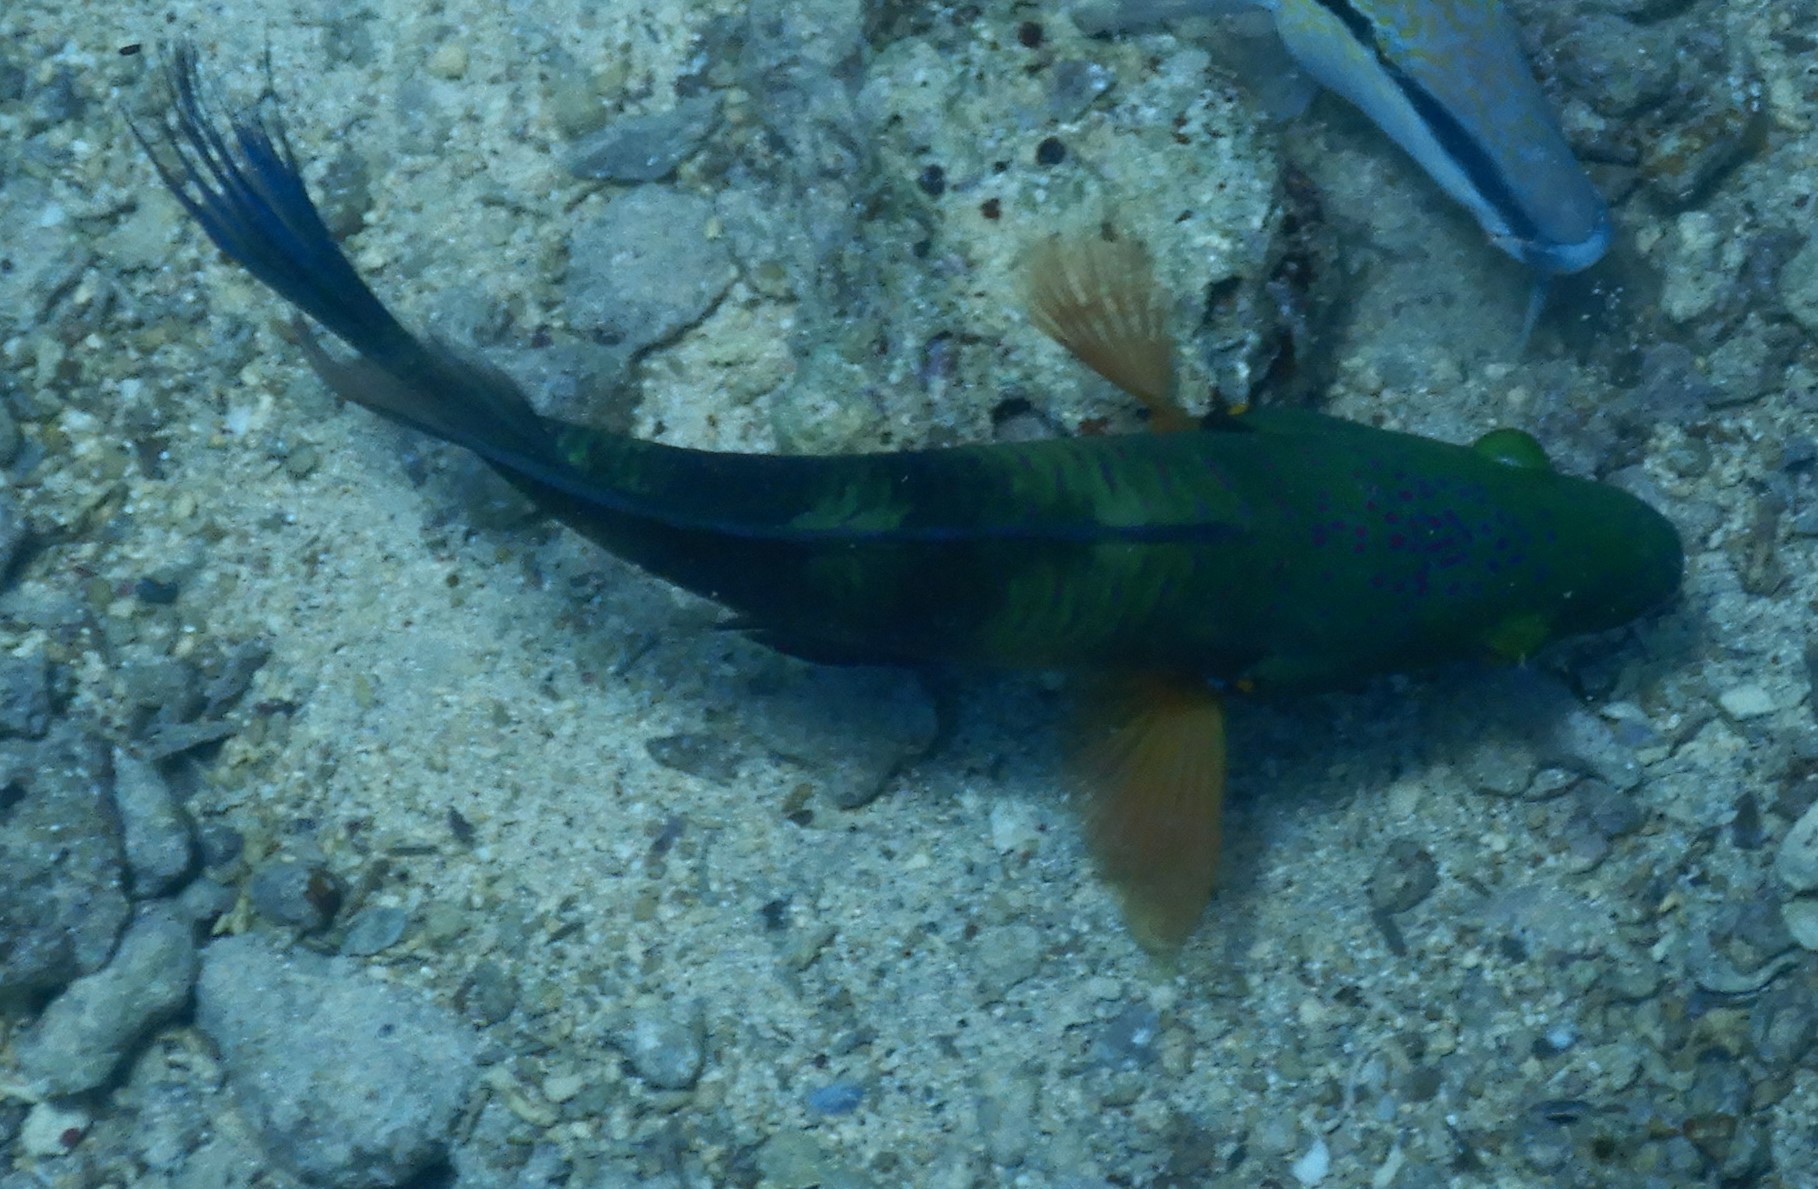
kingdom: Animalia
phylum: Chordata
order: Perciformes
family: Labridae
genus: Cheilinus
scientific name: Cheilinus lunulatus
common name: Broomtail wrasse
